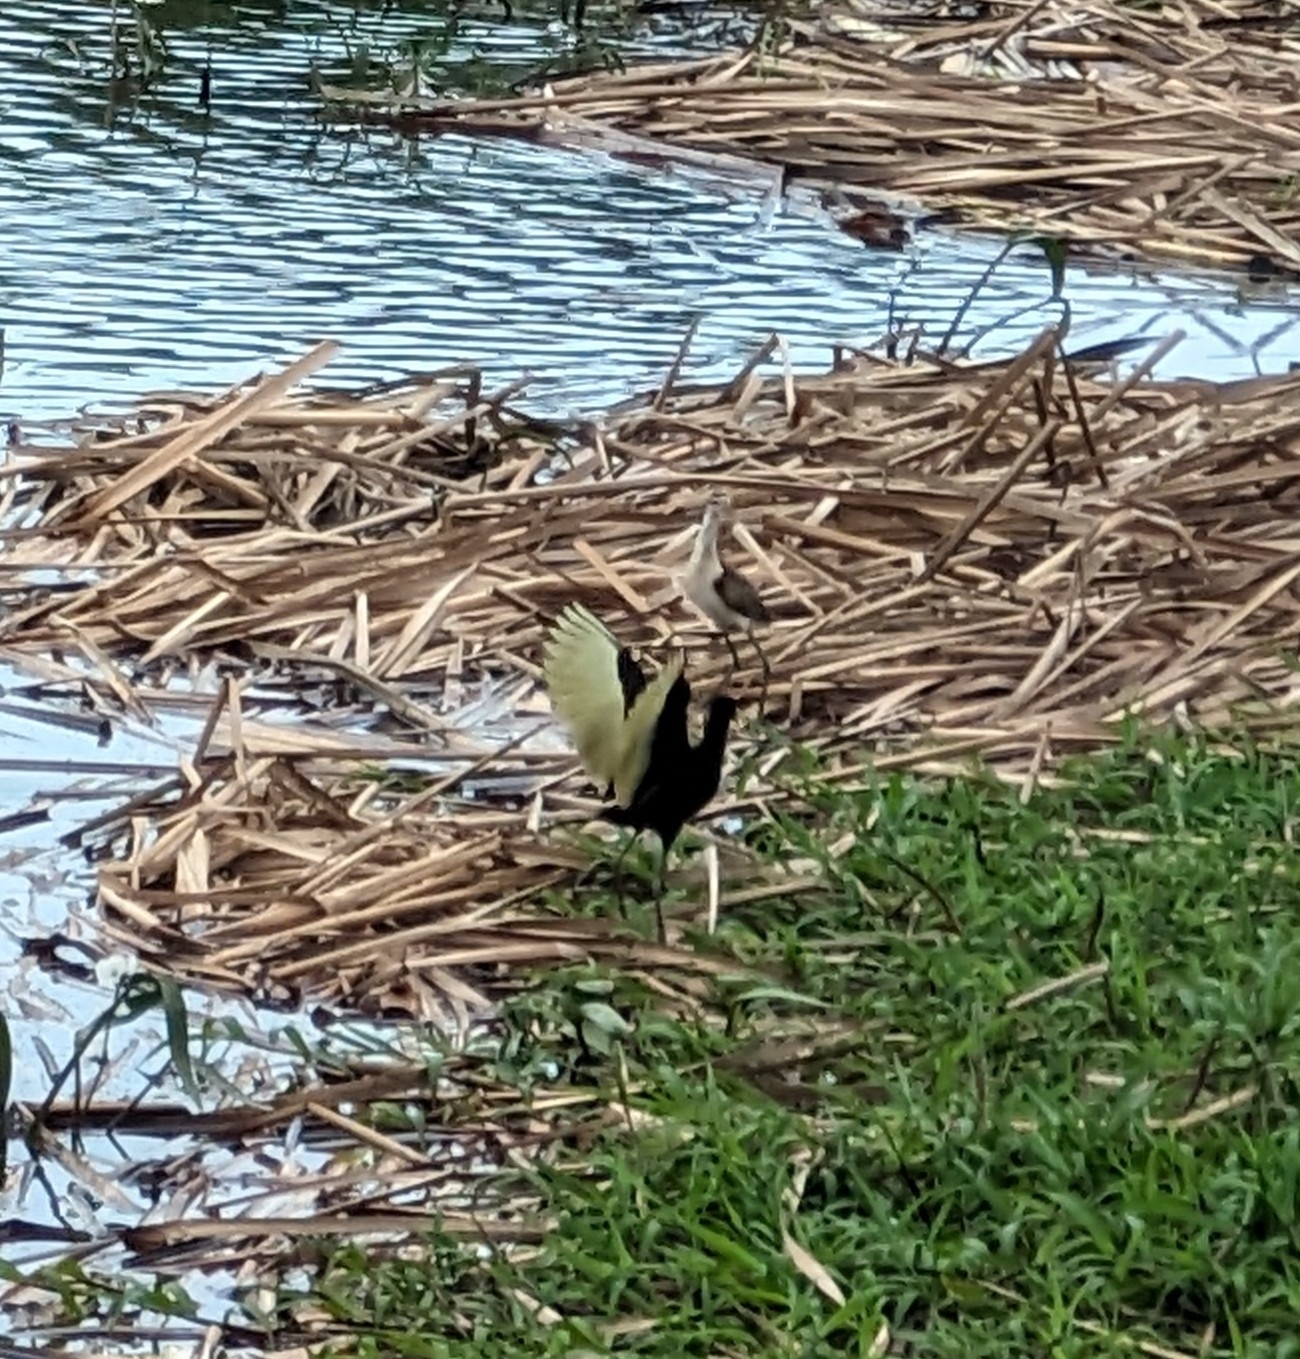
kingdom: Animalia
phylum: Chordata
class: Aves
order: Charadriiformes
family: Jacanidae
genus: Jacana
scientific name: Jacana spinosa
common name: Northern jacana
